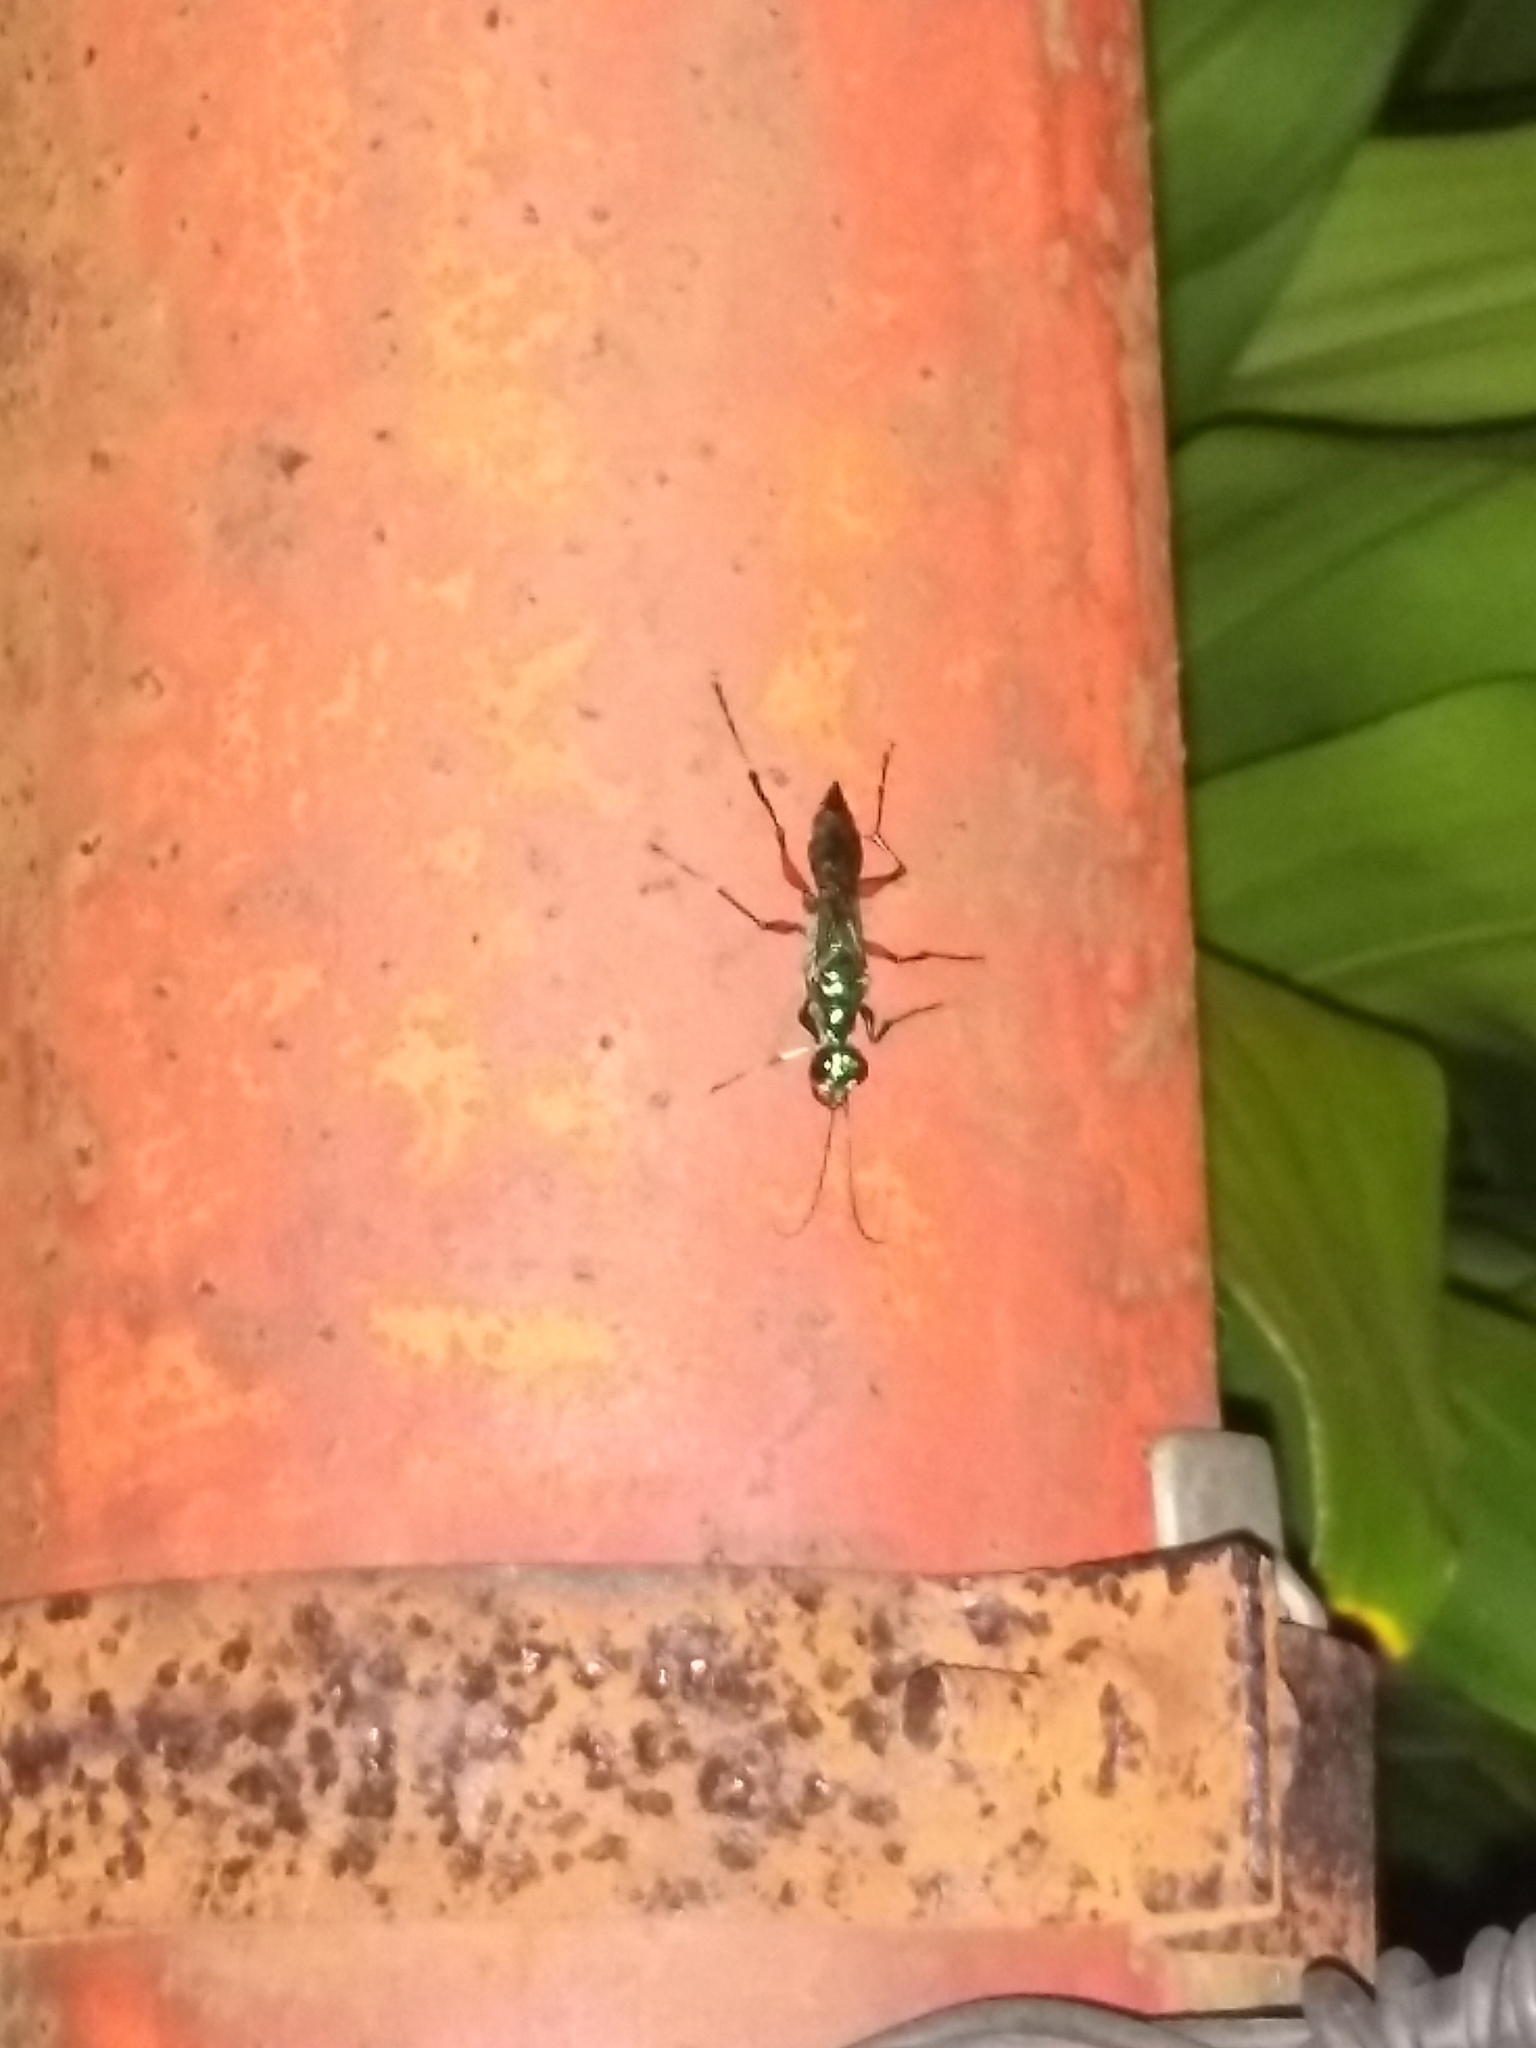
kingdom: Animalia
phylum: Arthropoda
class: Insecta
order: Hymenoptera
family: Ampulicidae
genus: Ampulex
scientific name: Ampulex compressa
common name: Emerald cockroach wasp
